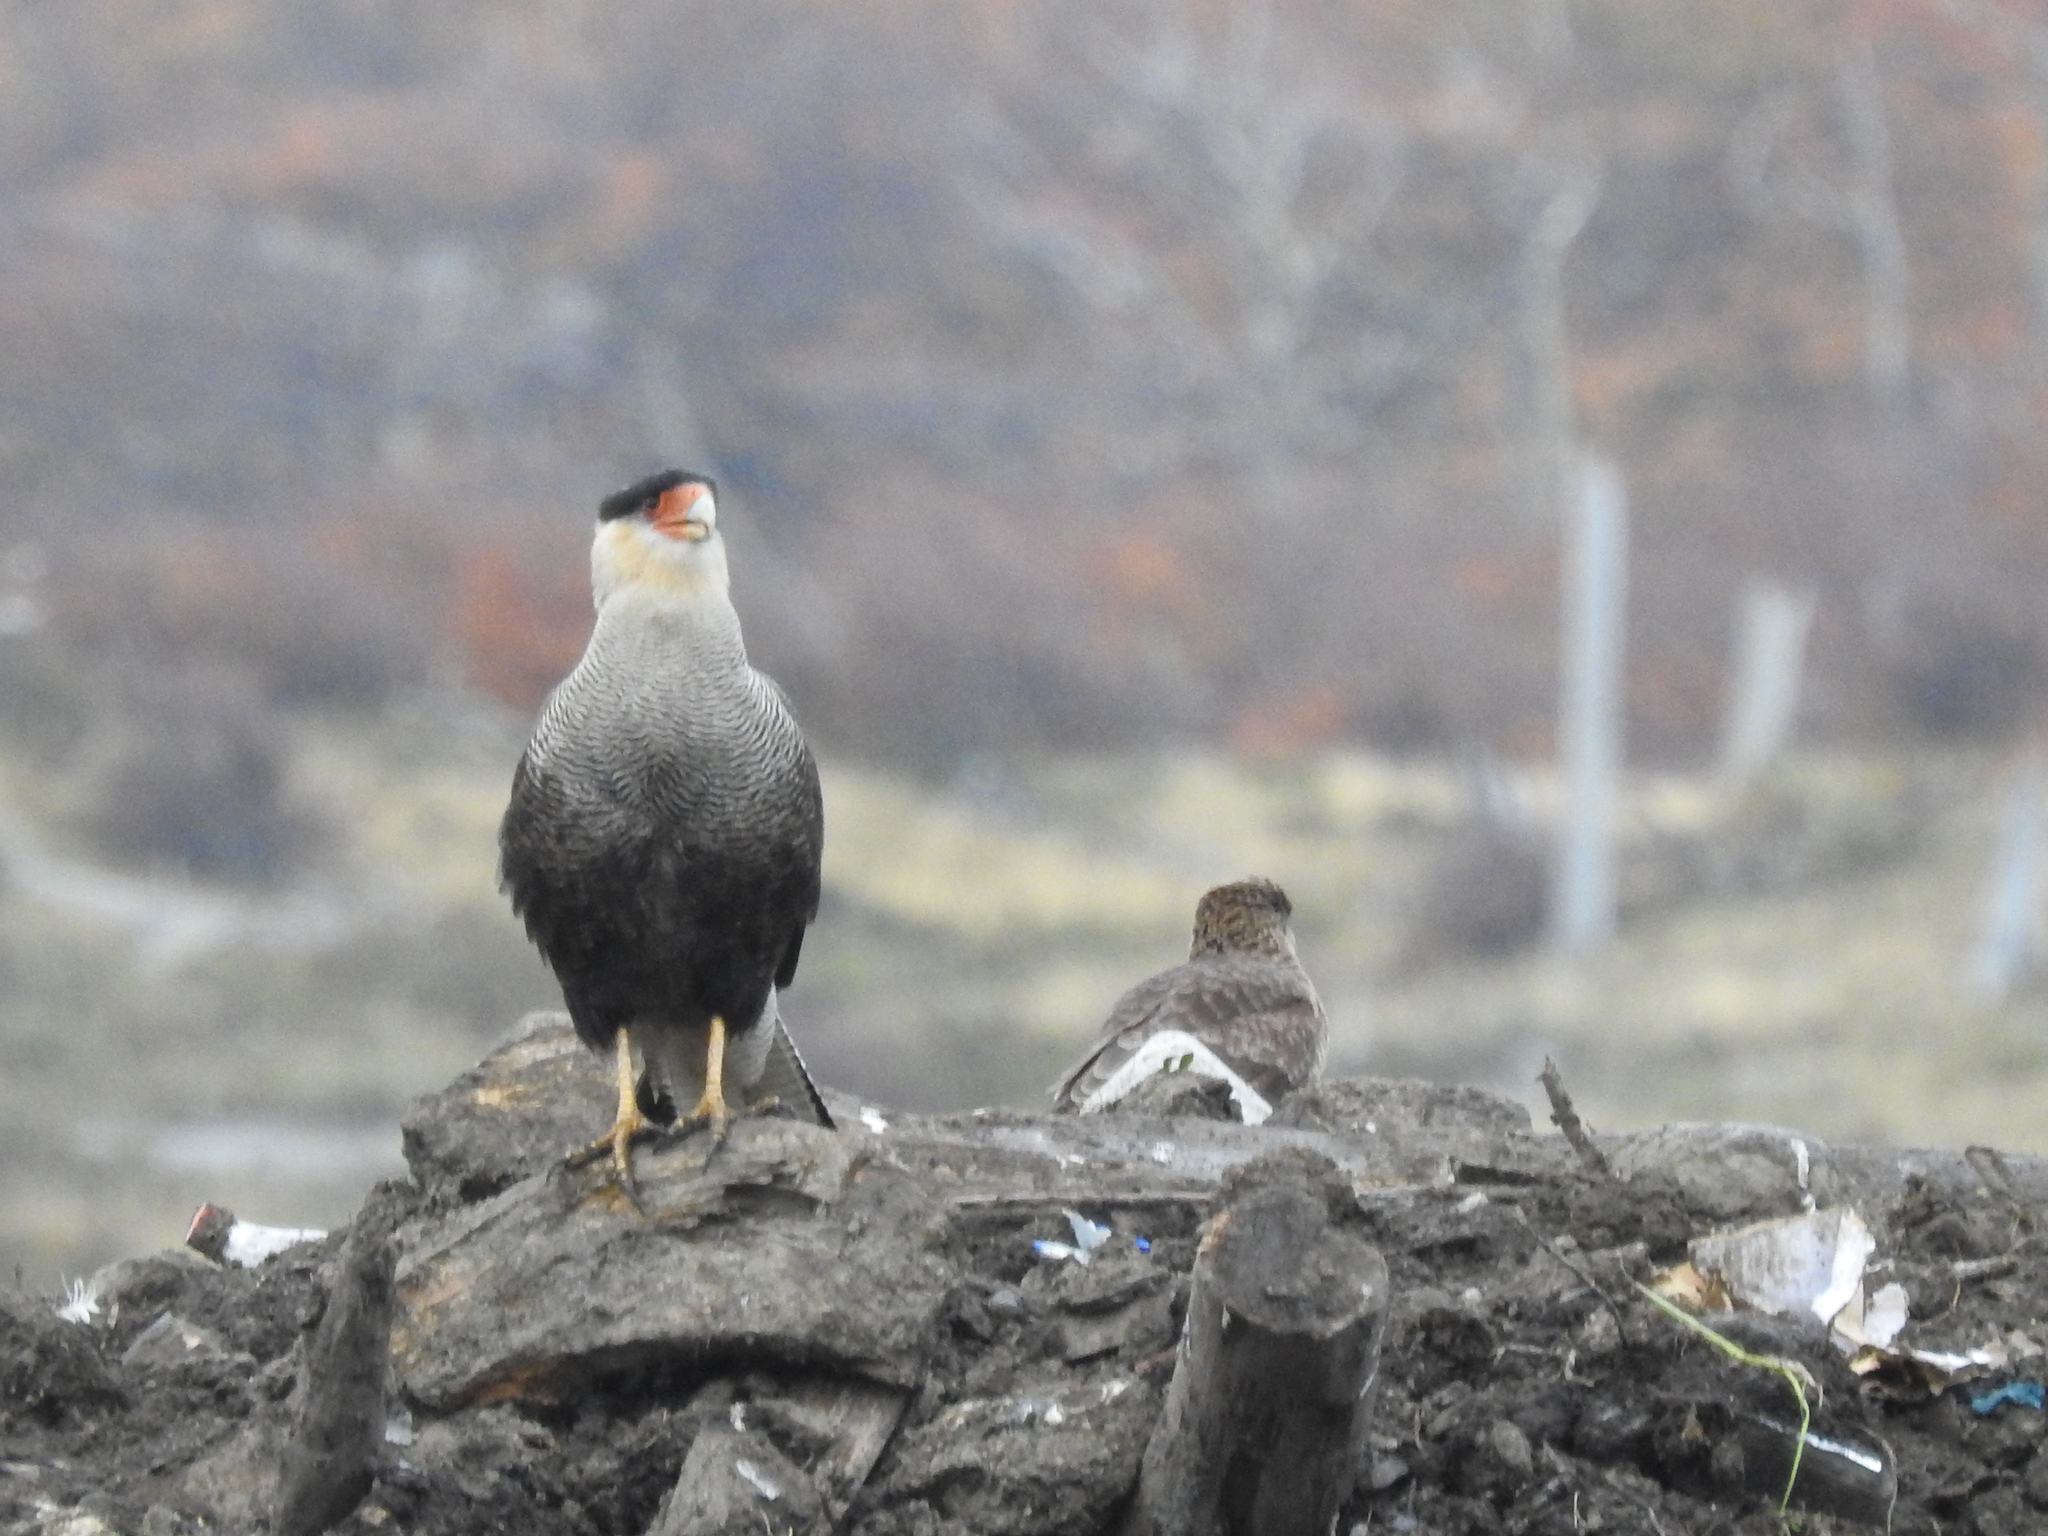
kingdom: Animalia
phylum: Chordata
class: Aves
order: Falconiformes
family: Falconidae
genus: Caracara
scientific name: Caracara plancus
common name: Southern caracara
